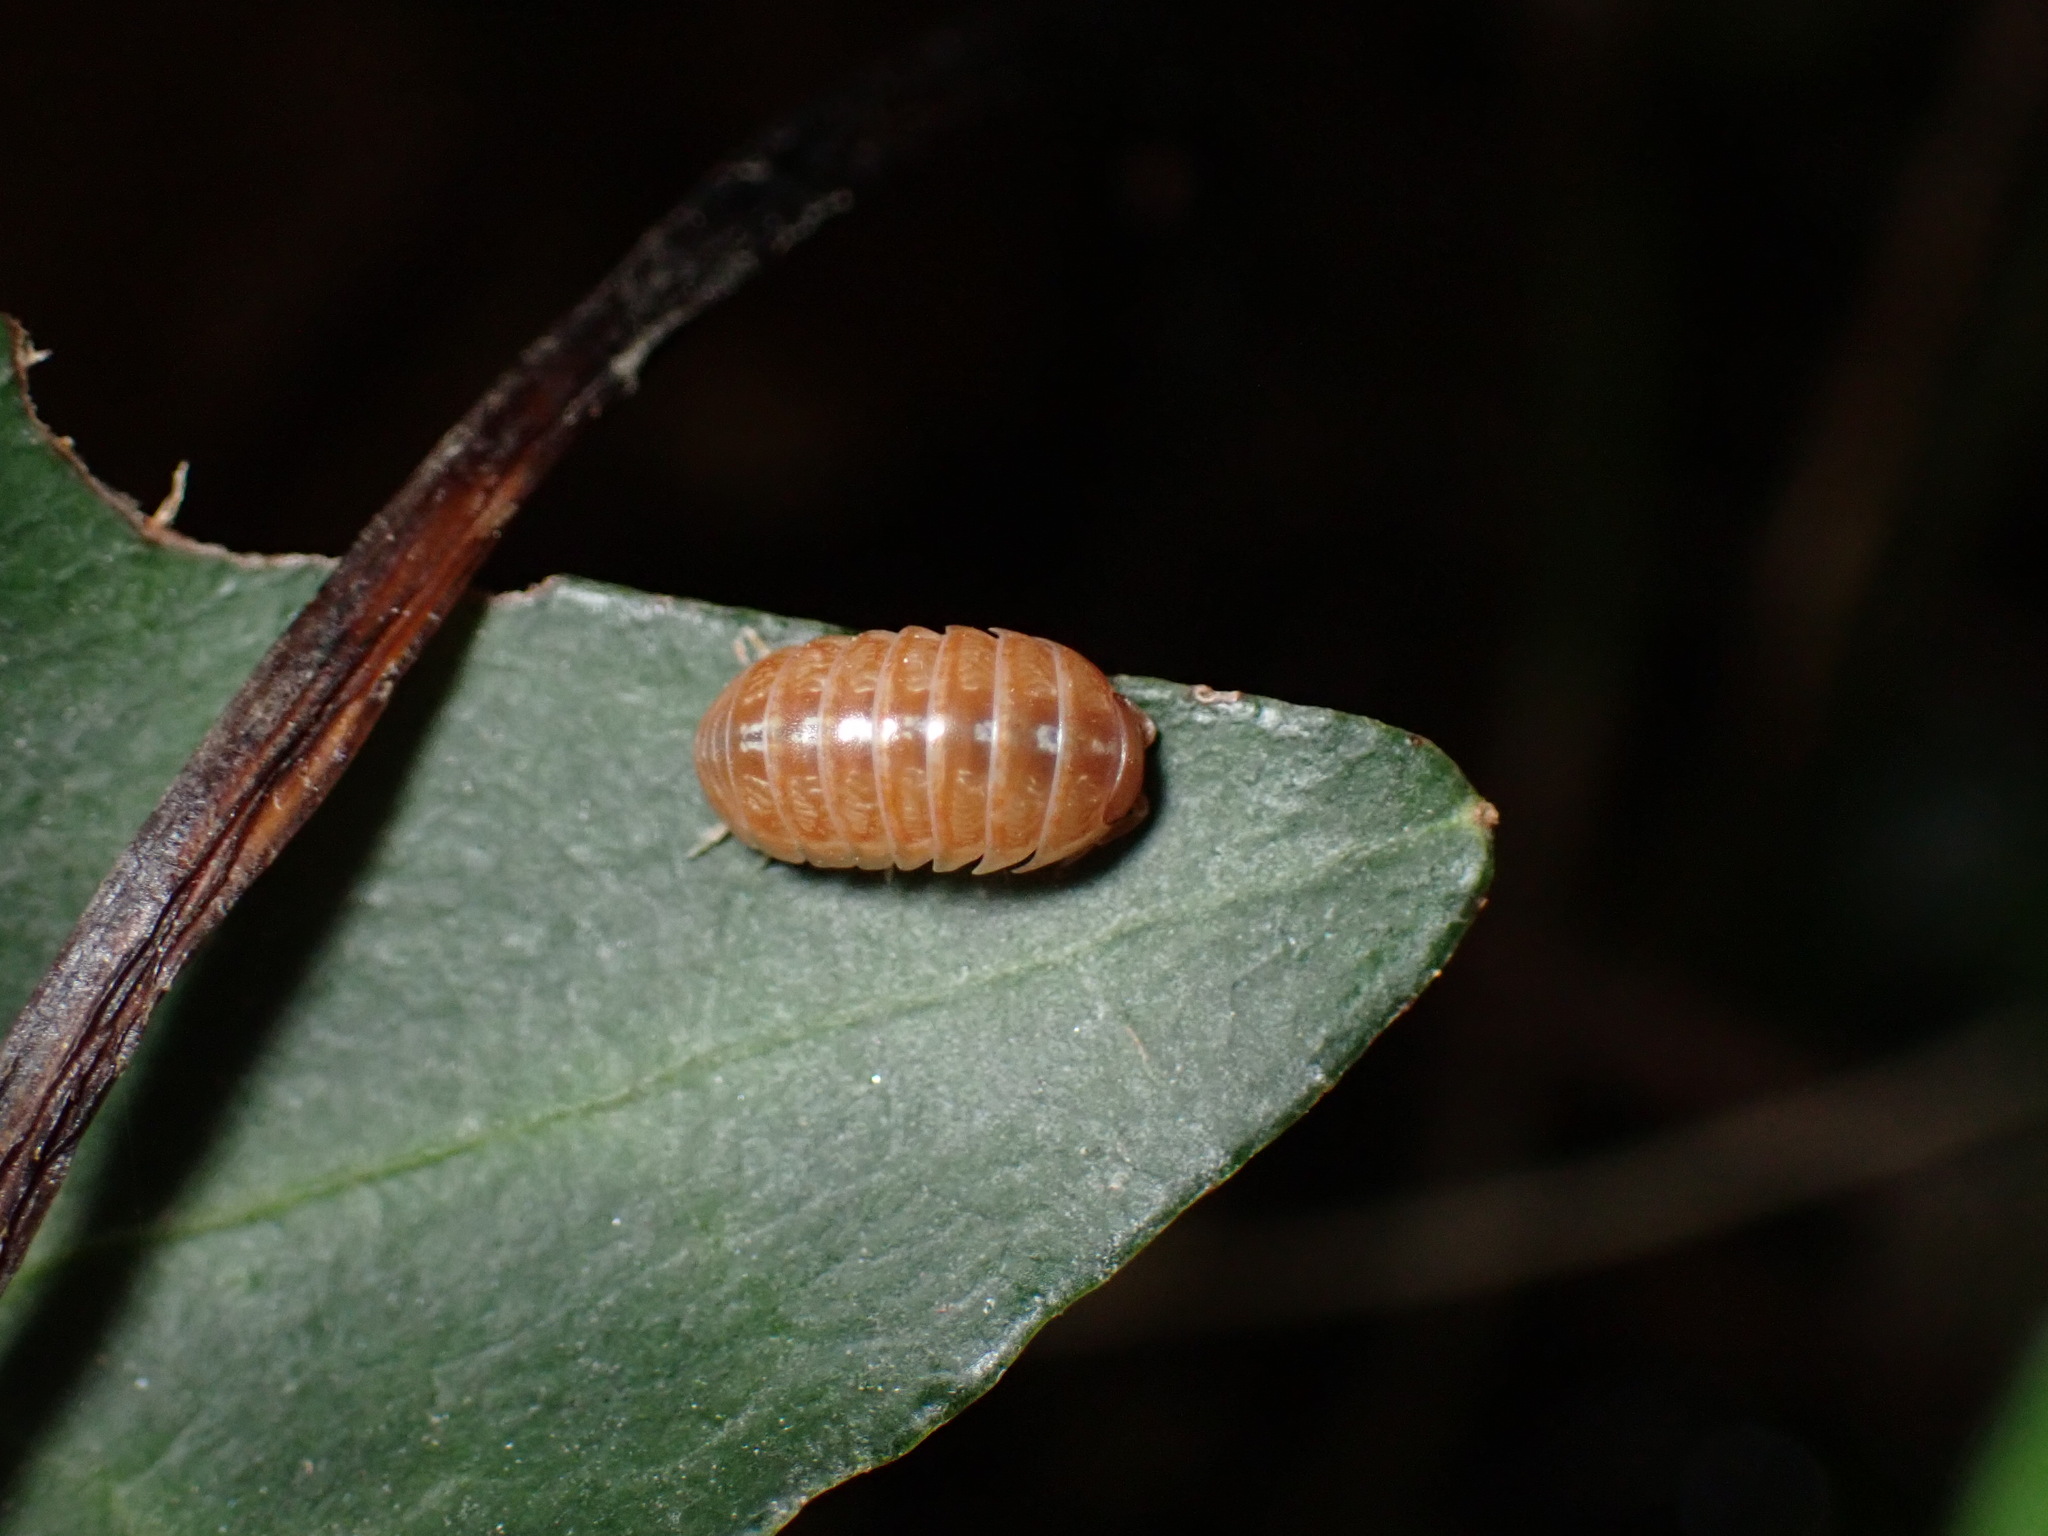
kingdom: Animalia
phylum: Arthropoda
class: Malacostraca
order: Isopoda
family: Armadillidiidae
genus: Armadillidium
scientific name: Armadillidium vulgare
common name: Common pill woodlouse
